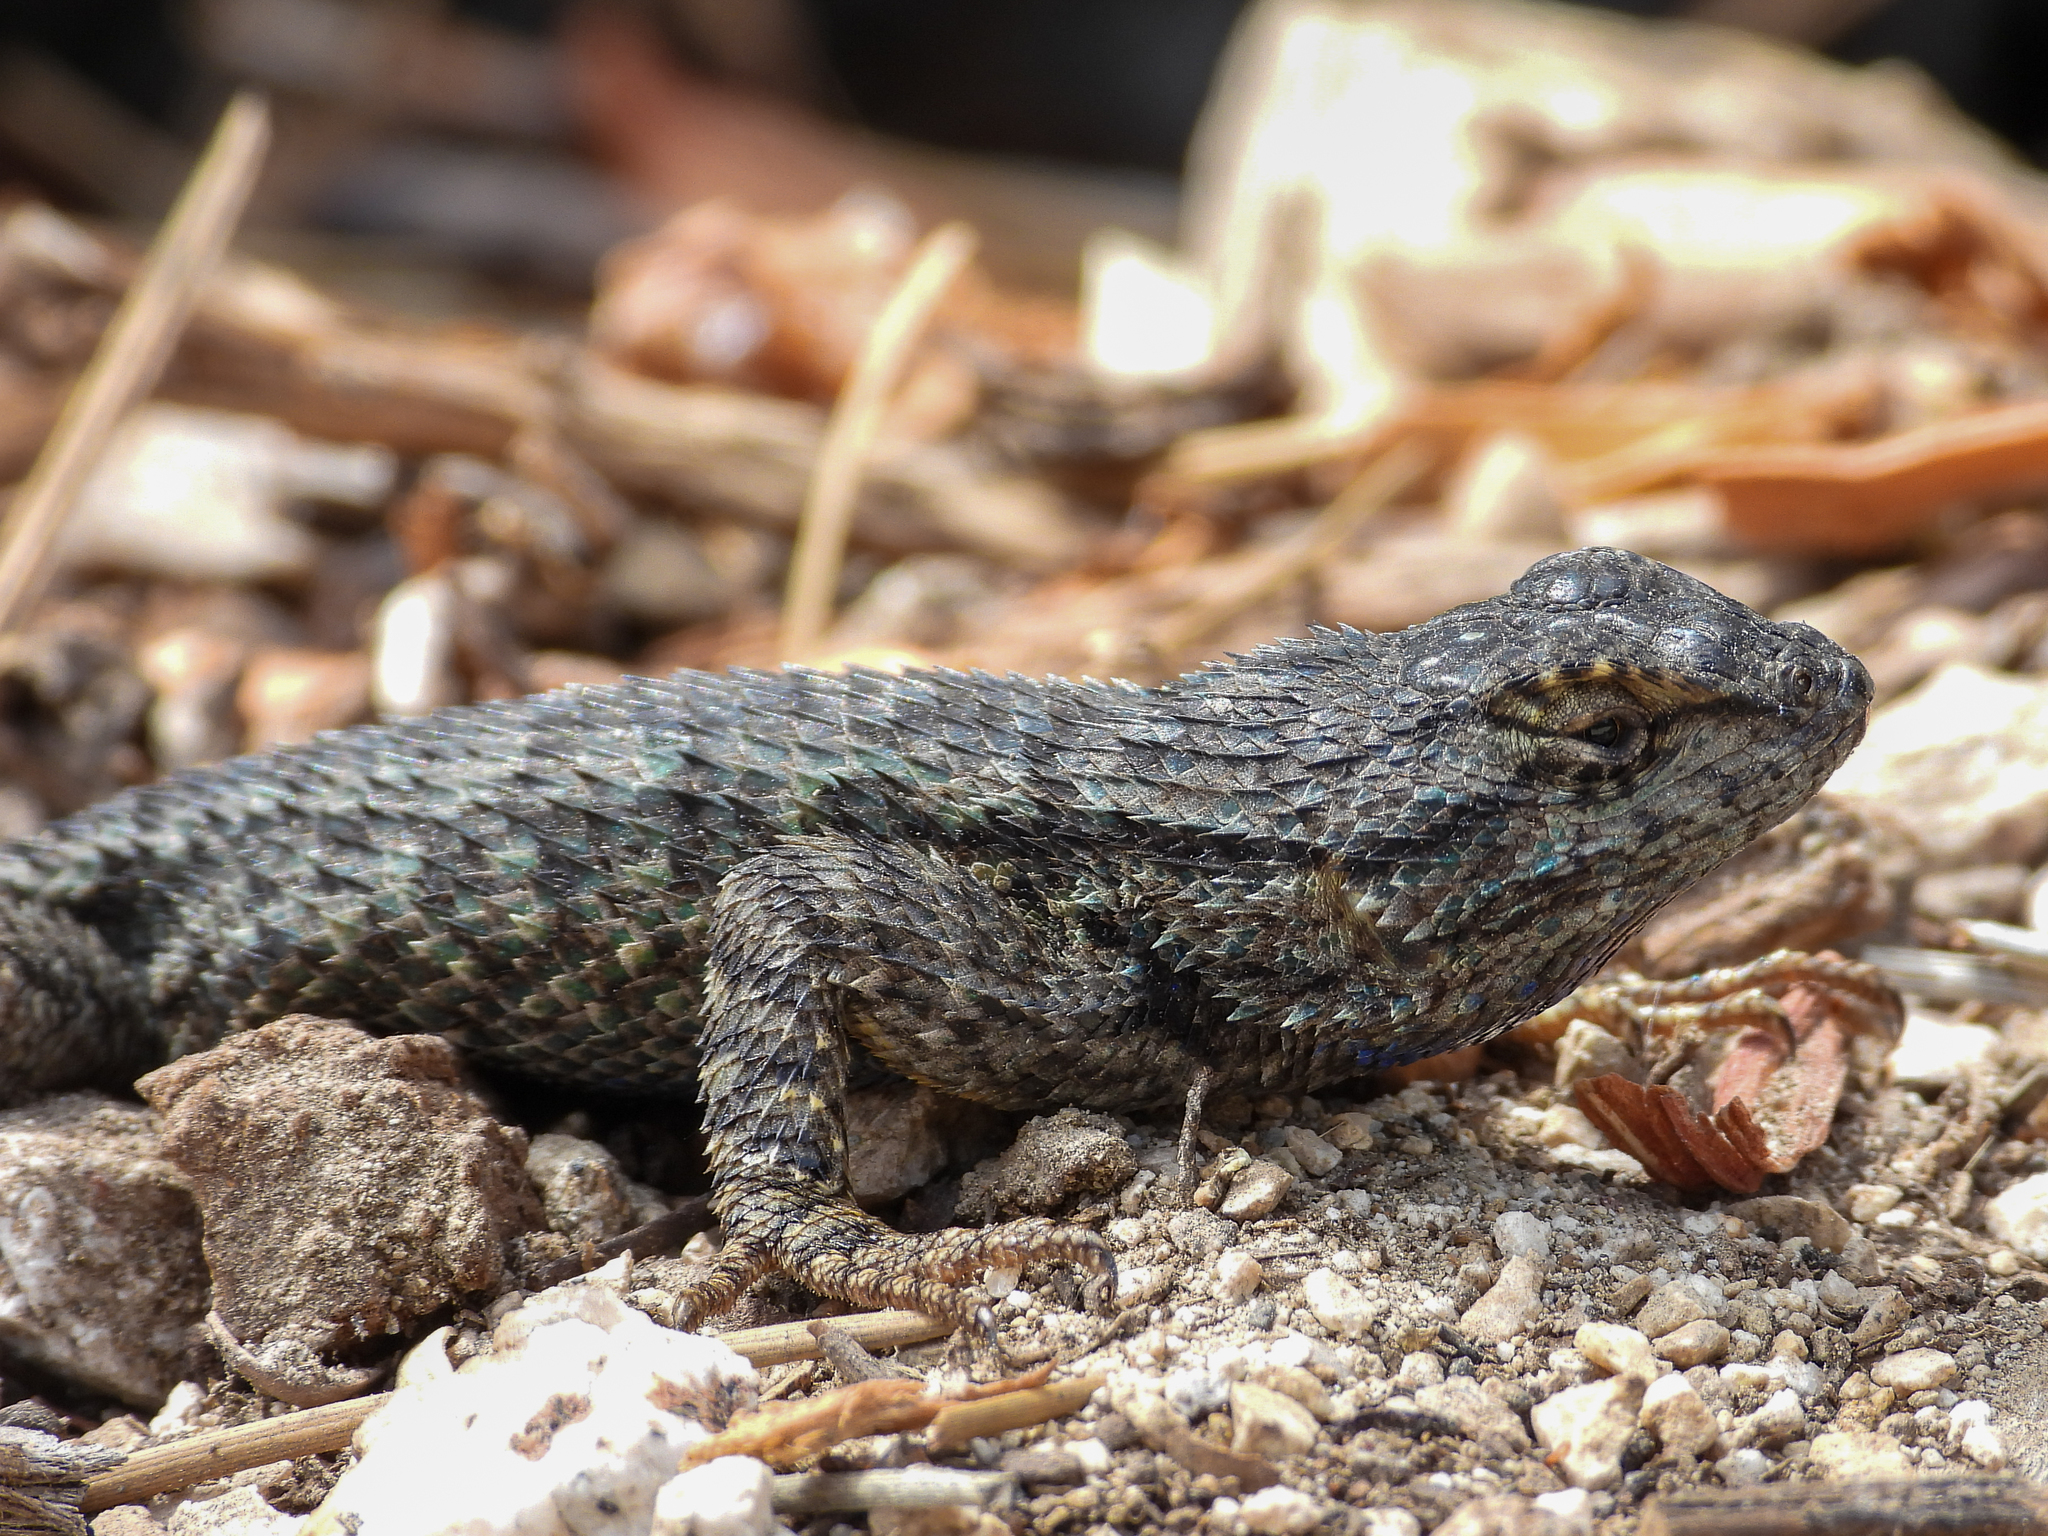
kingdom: Animalia
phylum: Chordata
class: Squamata
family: Phrynosomatidae
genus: Sceloporus
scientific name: Sceloporus occidentalis
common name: Western fence lizard
